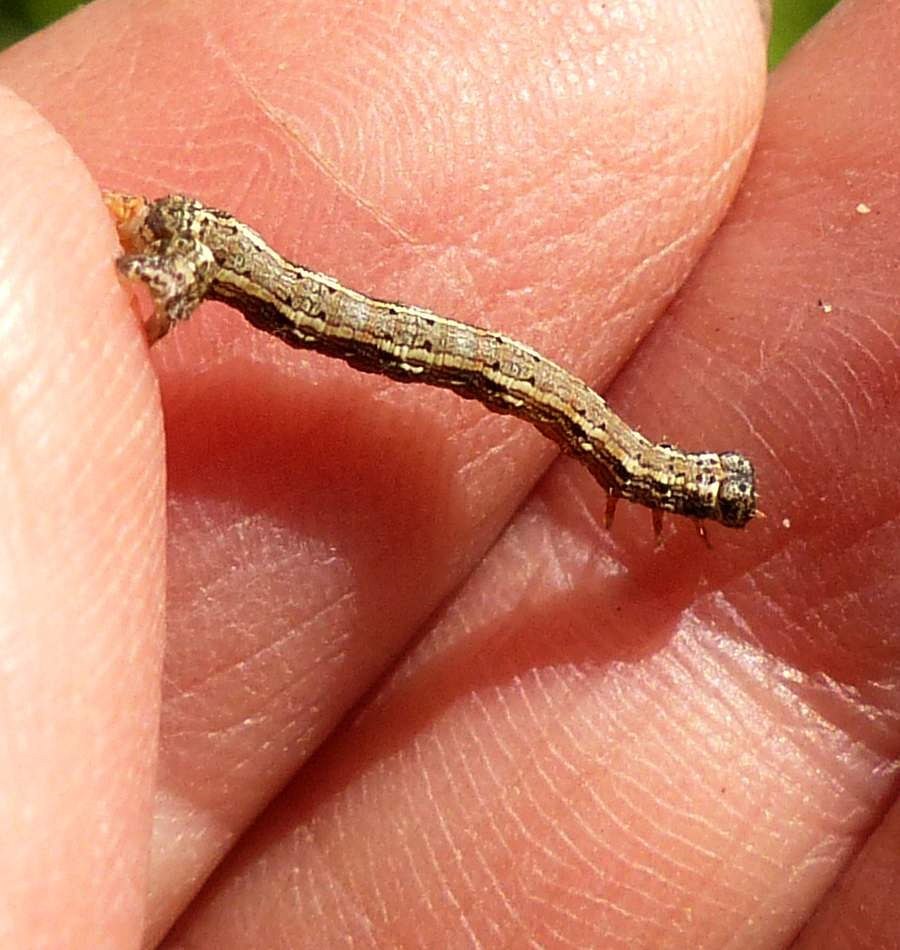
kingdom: Animalia
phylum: Arthropoda
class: Insecta
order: Lepidoptera
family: Geometridae
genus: Lambdina
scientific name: Lambdina fiscellaria
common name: Hemlock looper
